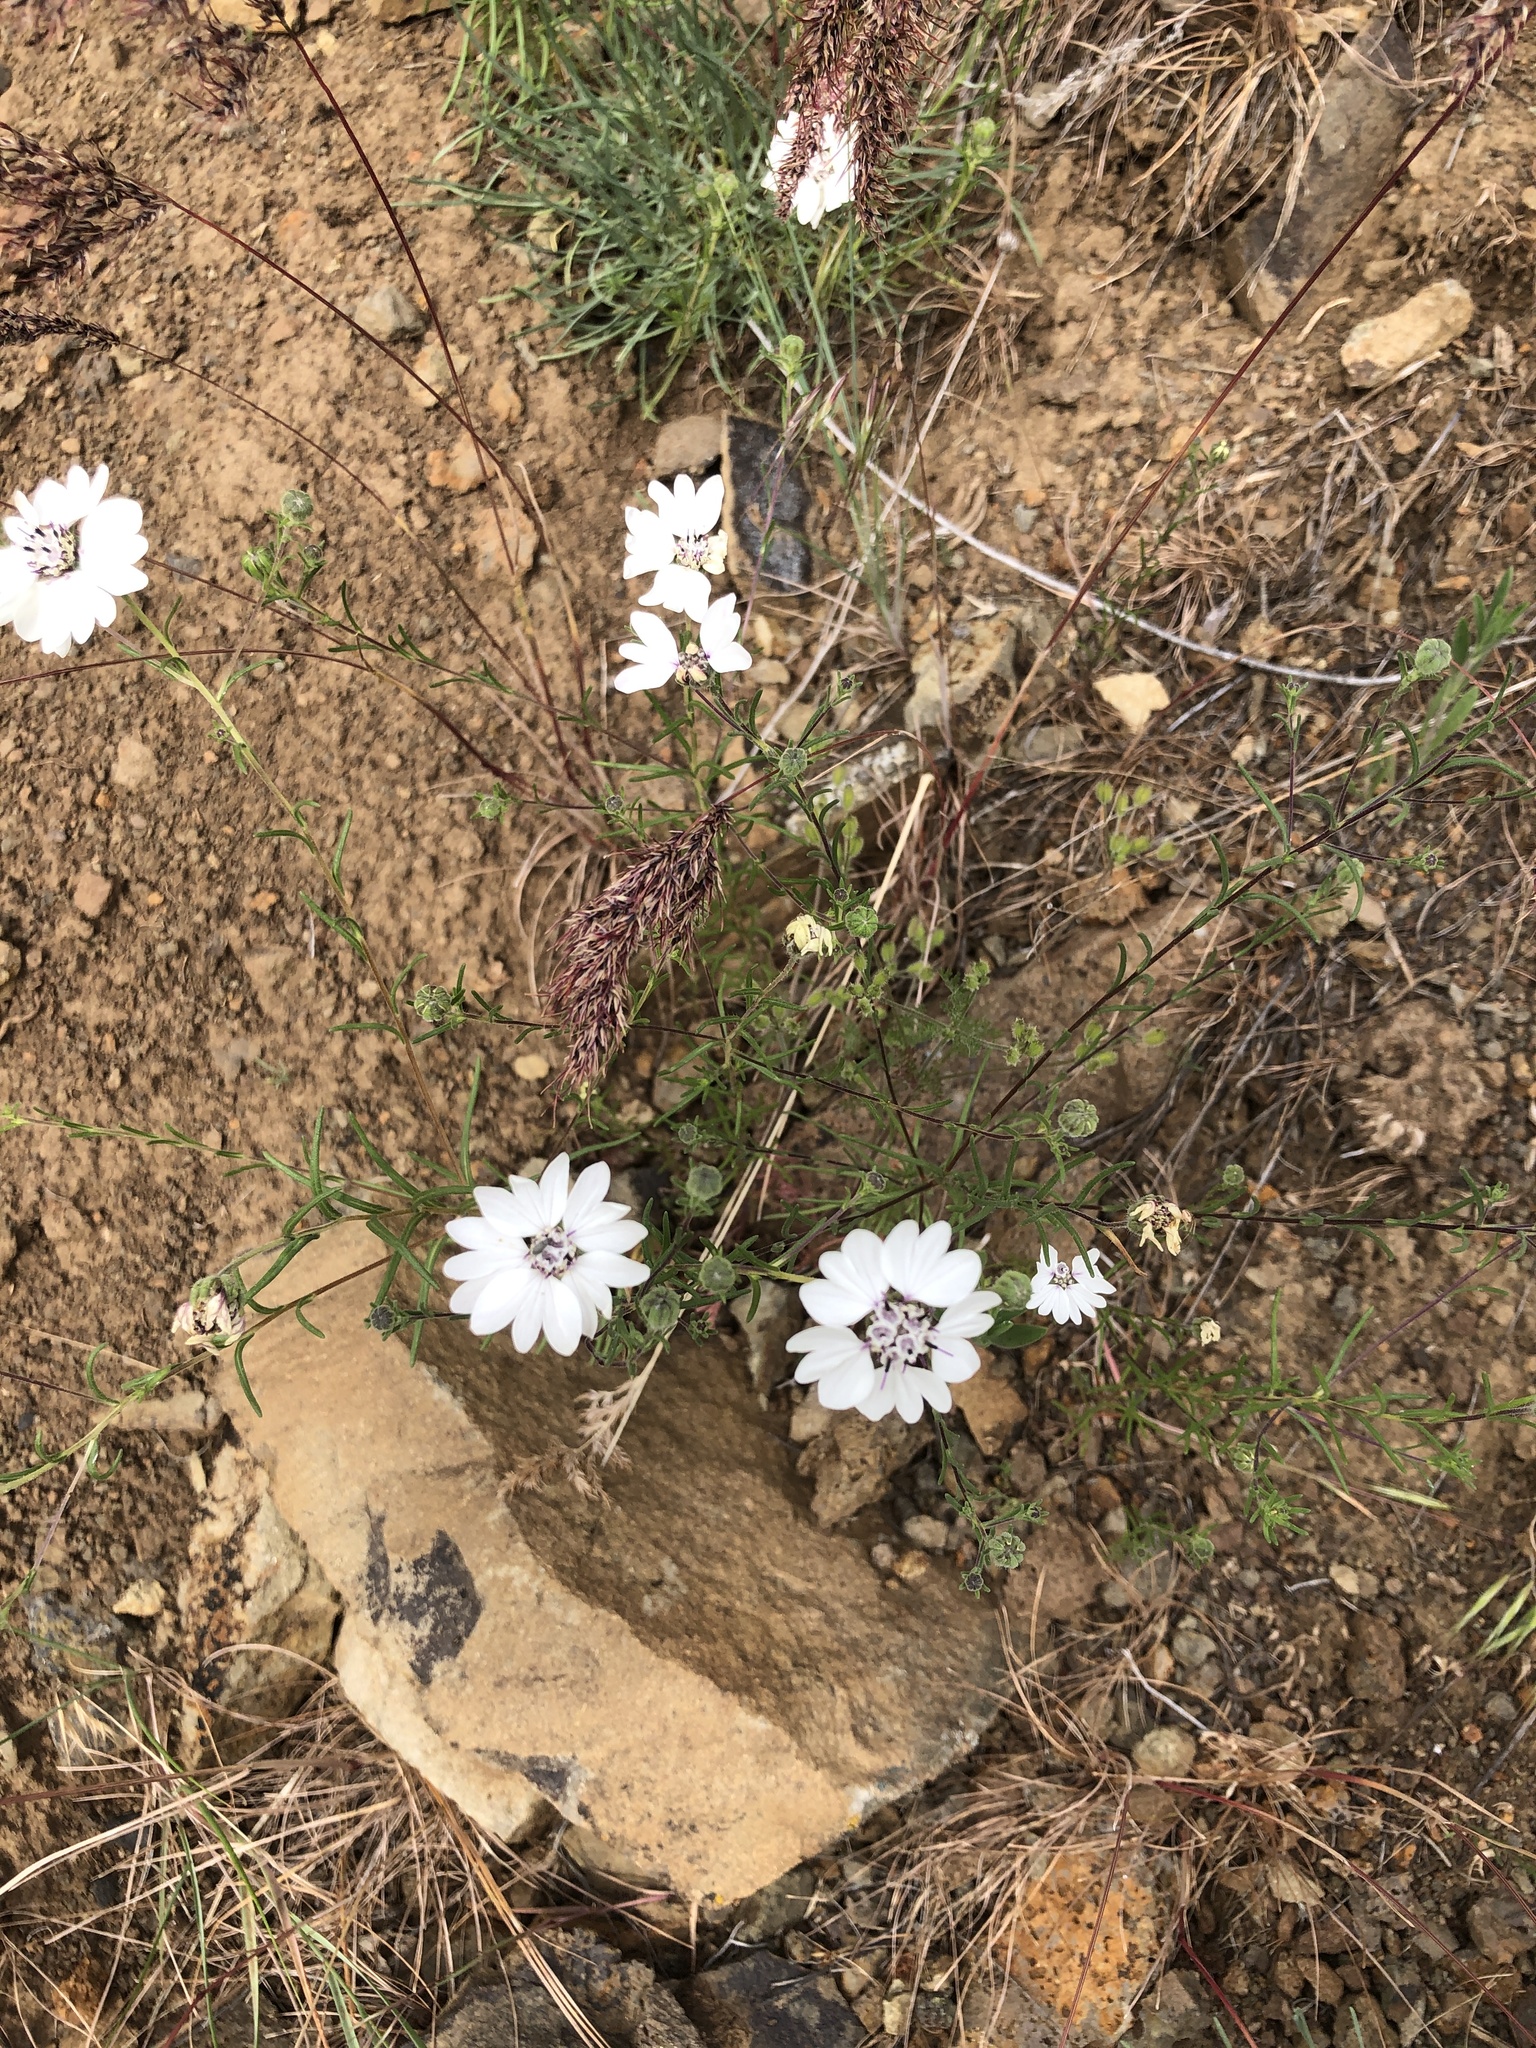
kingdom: Plantae
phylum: Tracheophyta
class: Magnoliopsida
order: Asterales
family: Asteraceae
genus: Blepharipappus
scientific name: Blepharipappus scaber
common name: Rough blepharipappus
